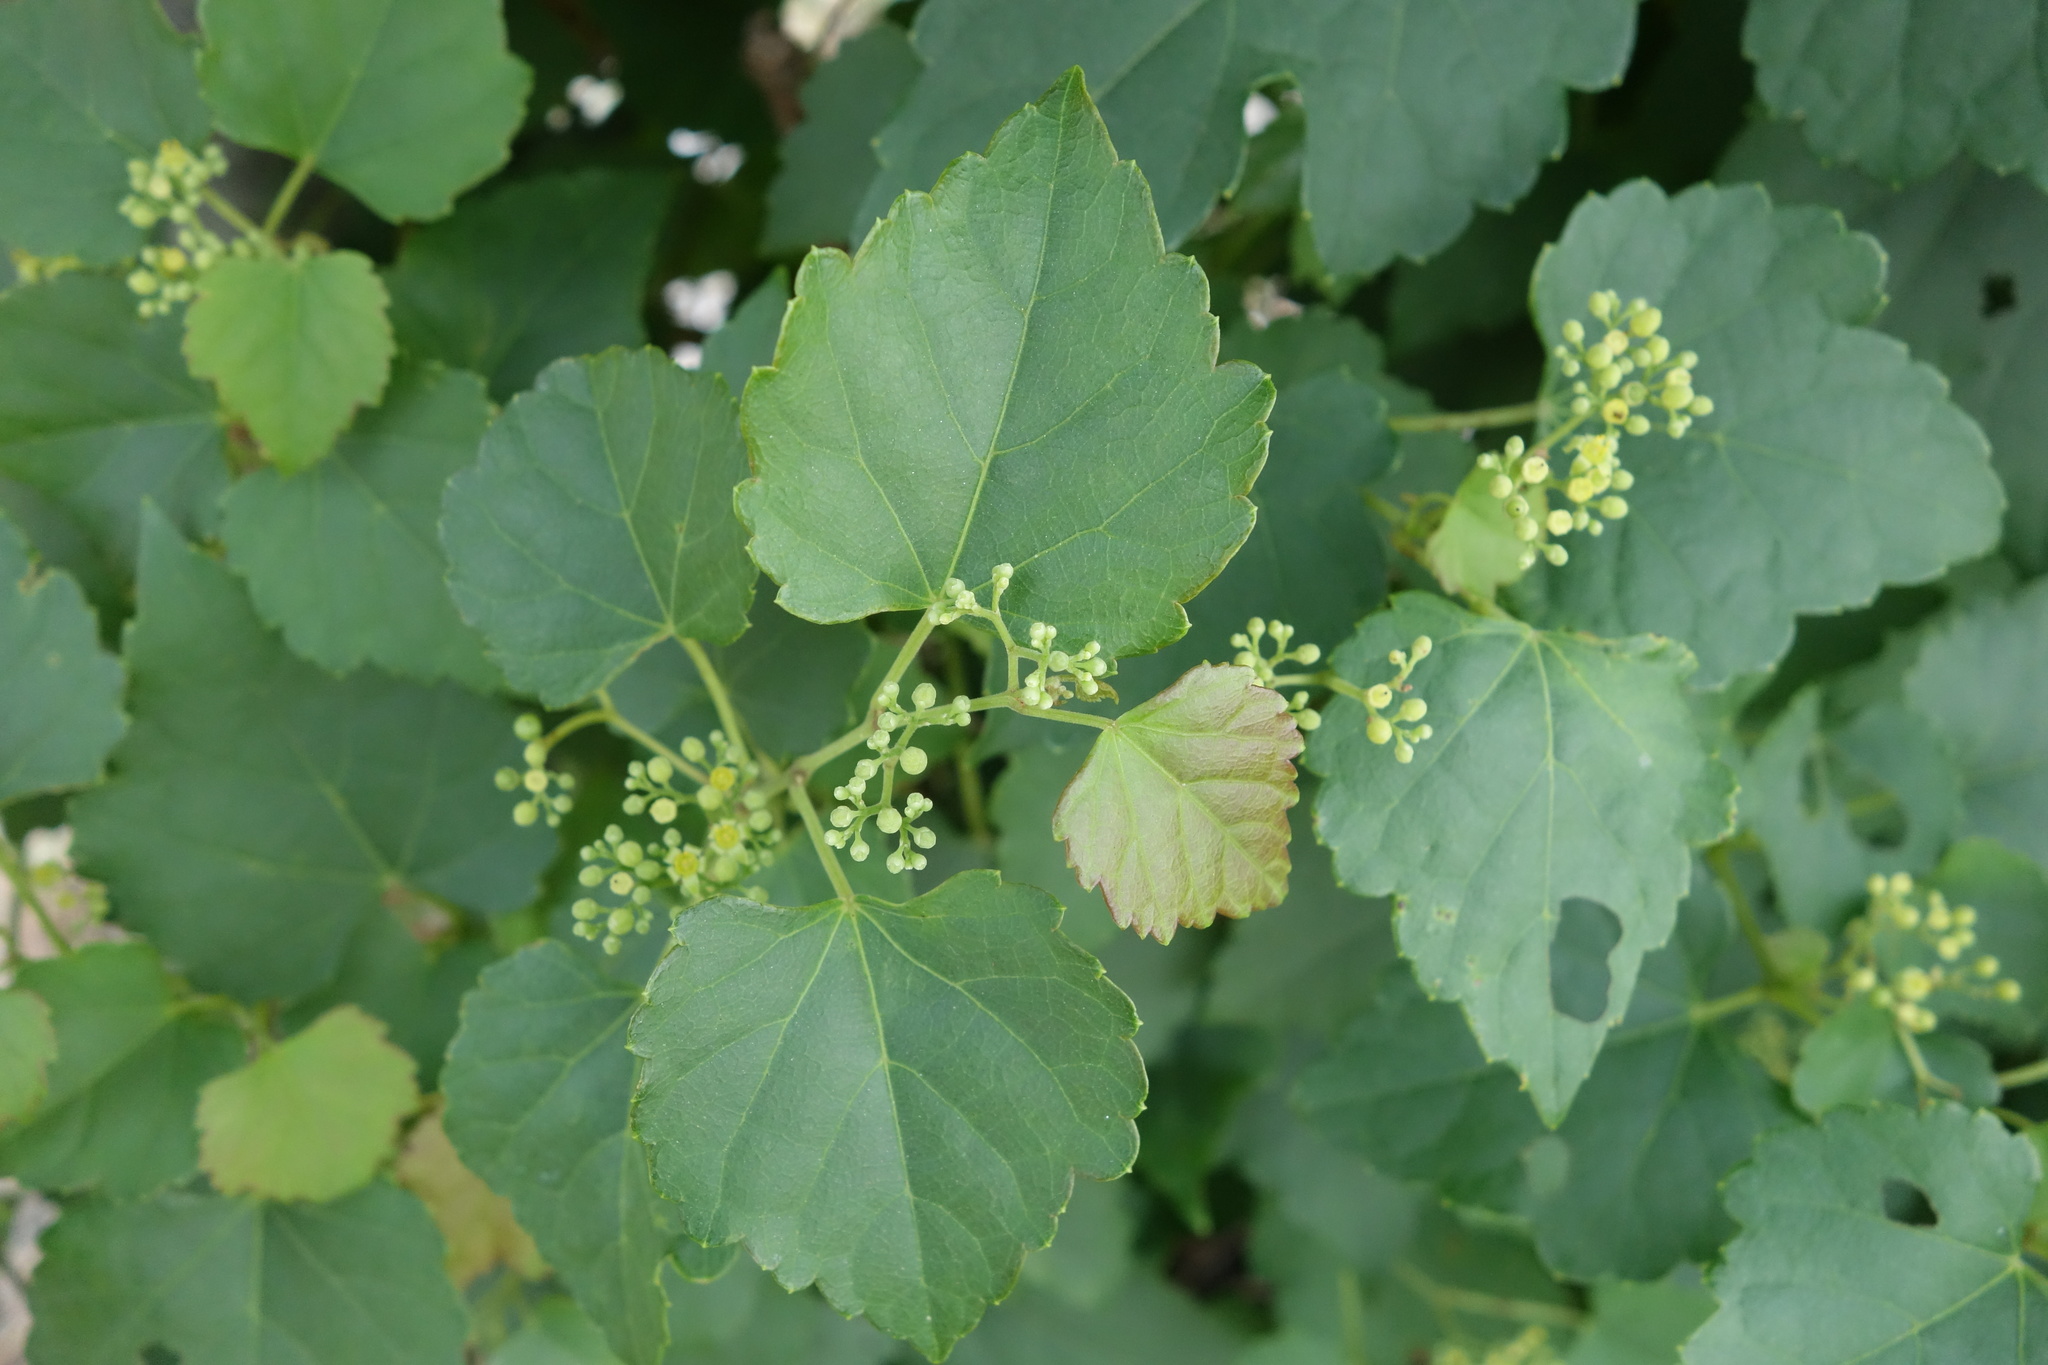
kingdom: Plantae
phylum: Tracheophyta
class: Magnoliopsida
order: Vitales
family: Vitaceae
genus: Ampelopsis
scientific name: Ampelopsis glandulosa
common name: Amur peppervine
